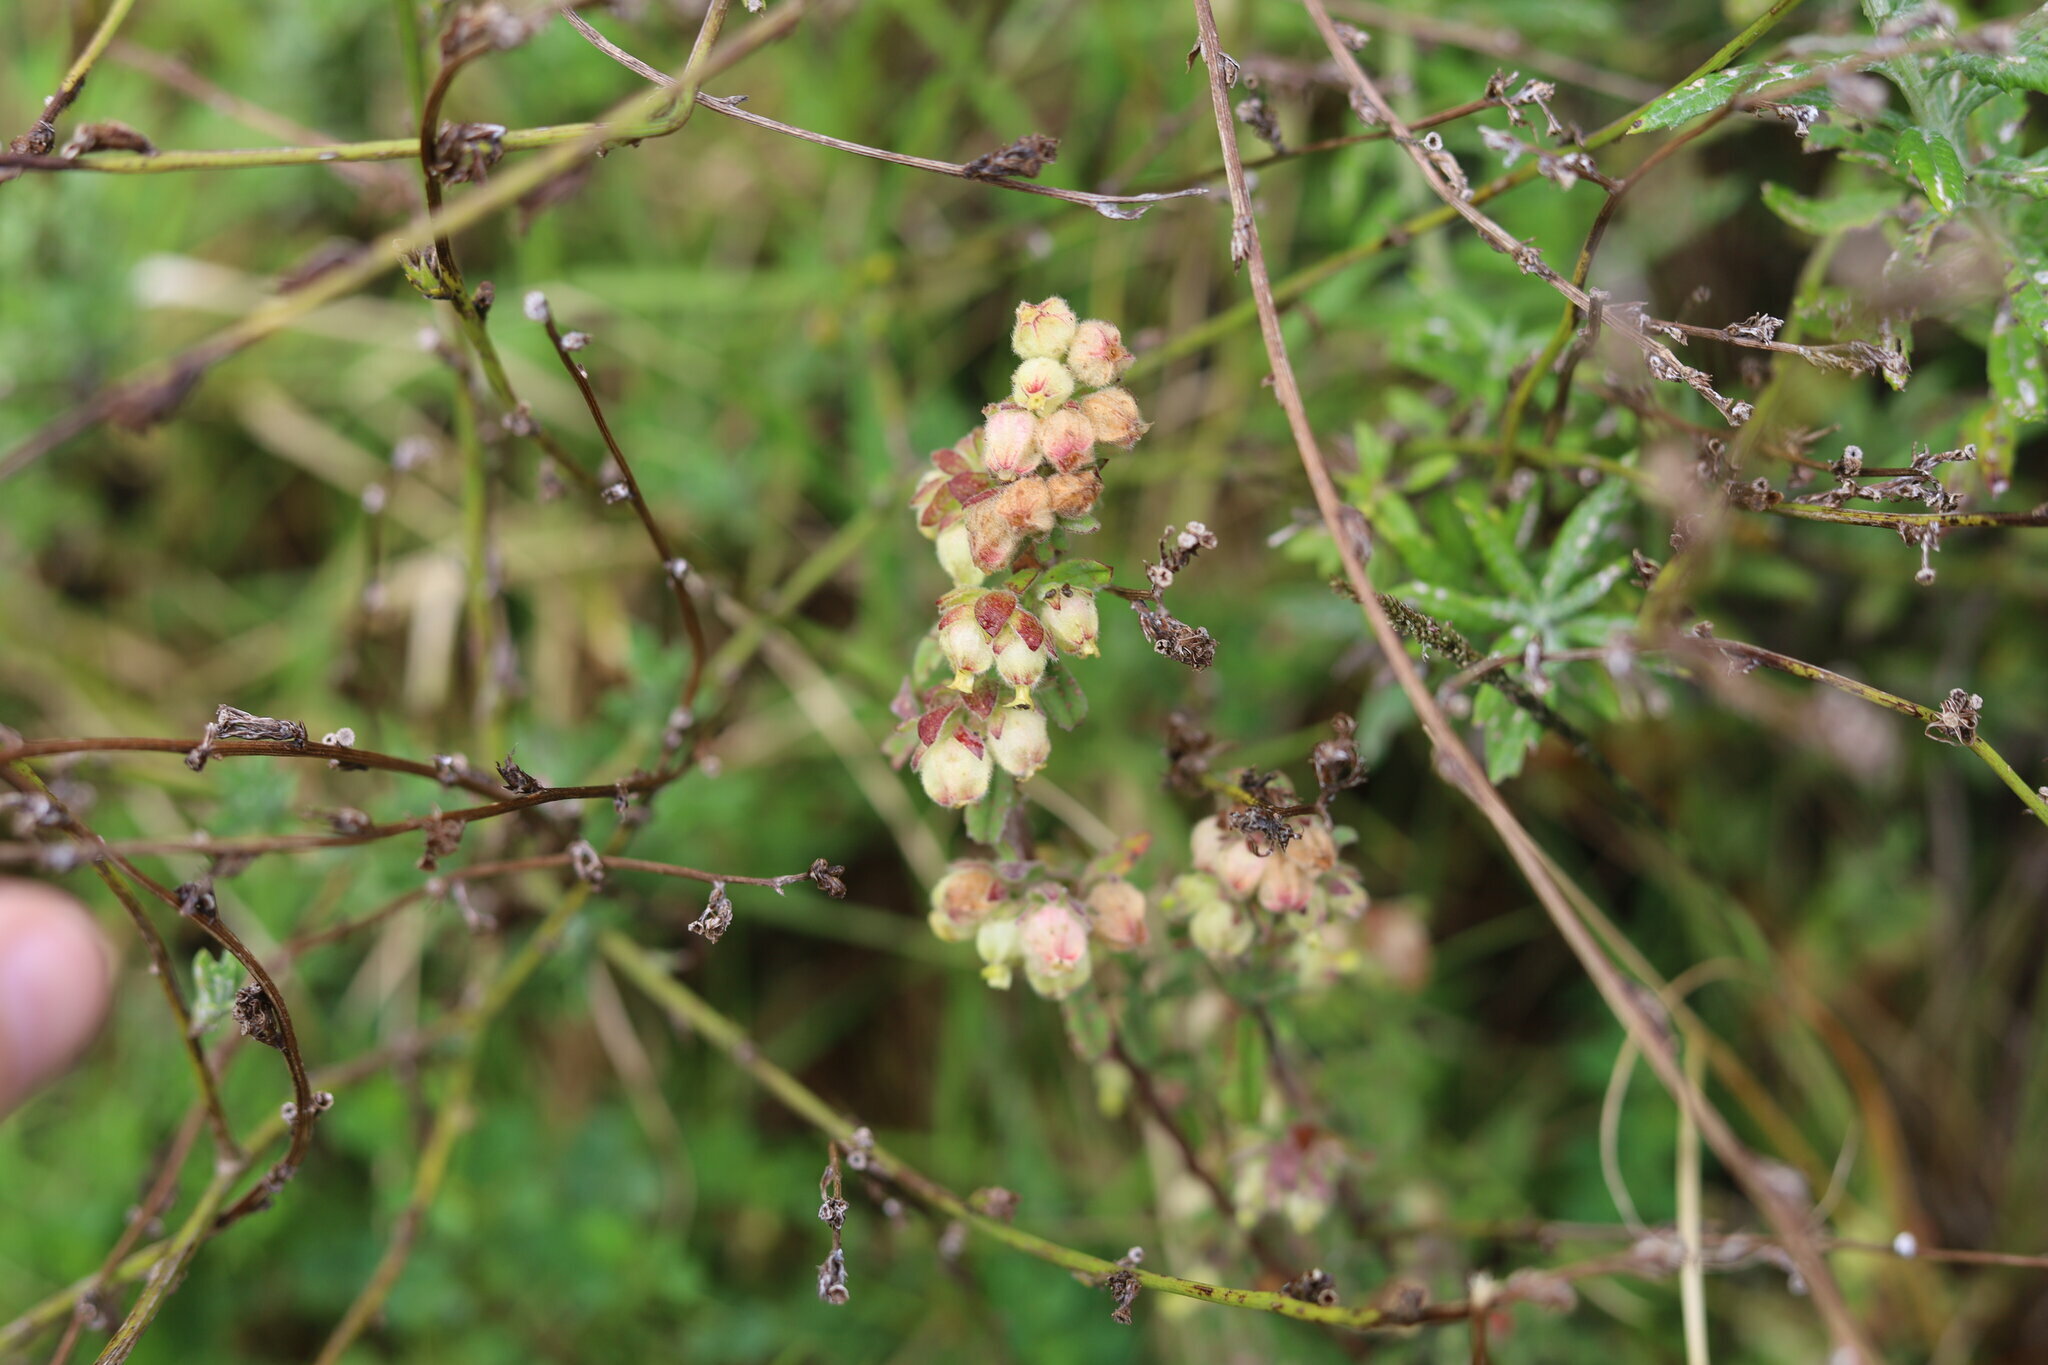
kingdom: Plantae
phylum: Tracheophyta
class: Magnoliopsida
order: Malvales
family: Malvaceae
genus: Hermannia
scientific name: Hermannia hyssopifolia
